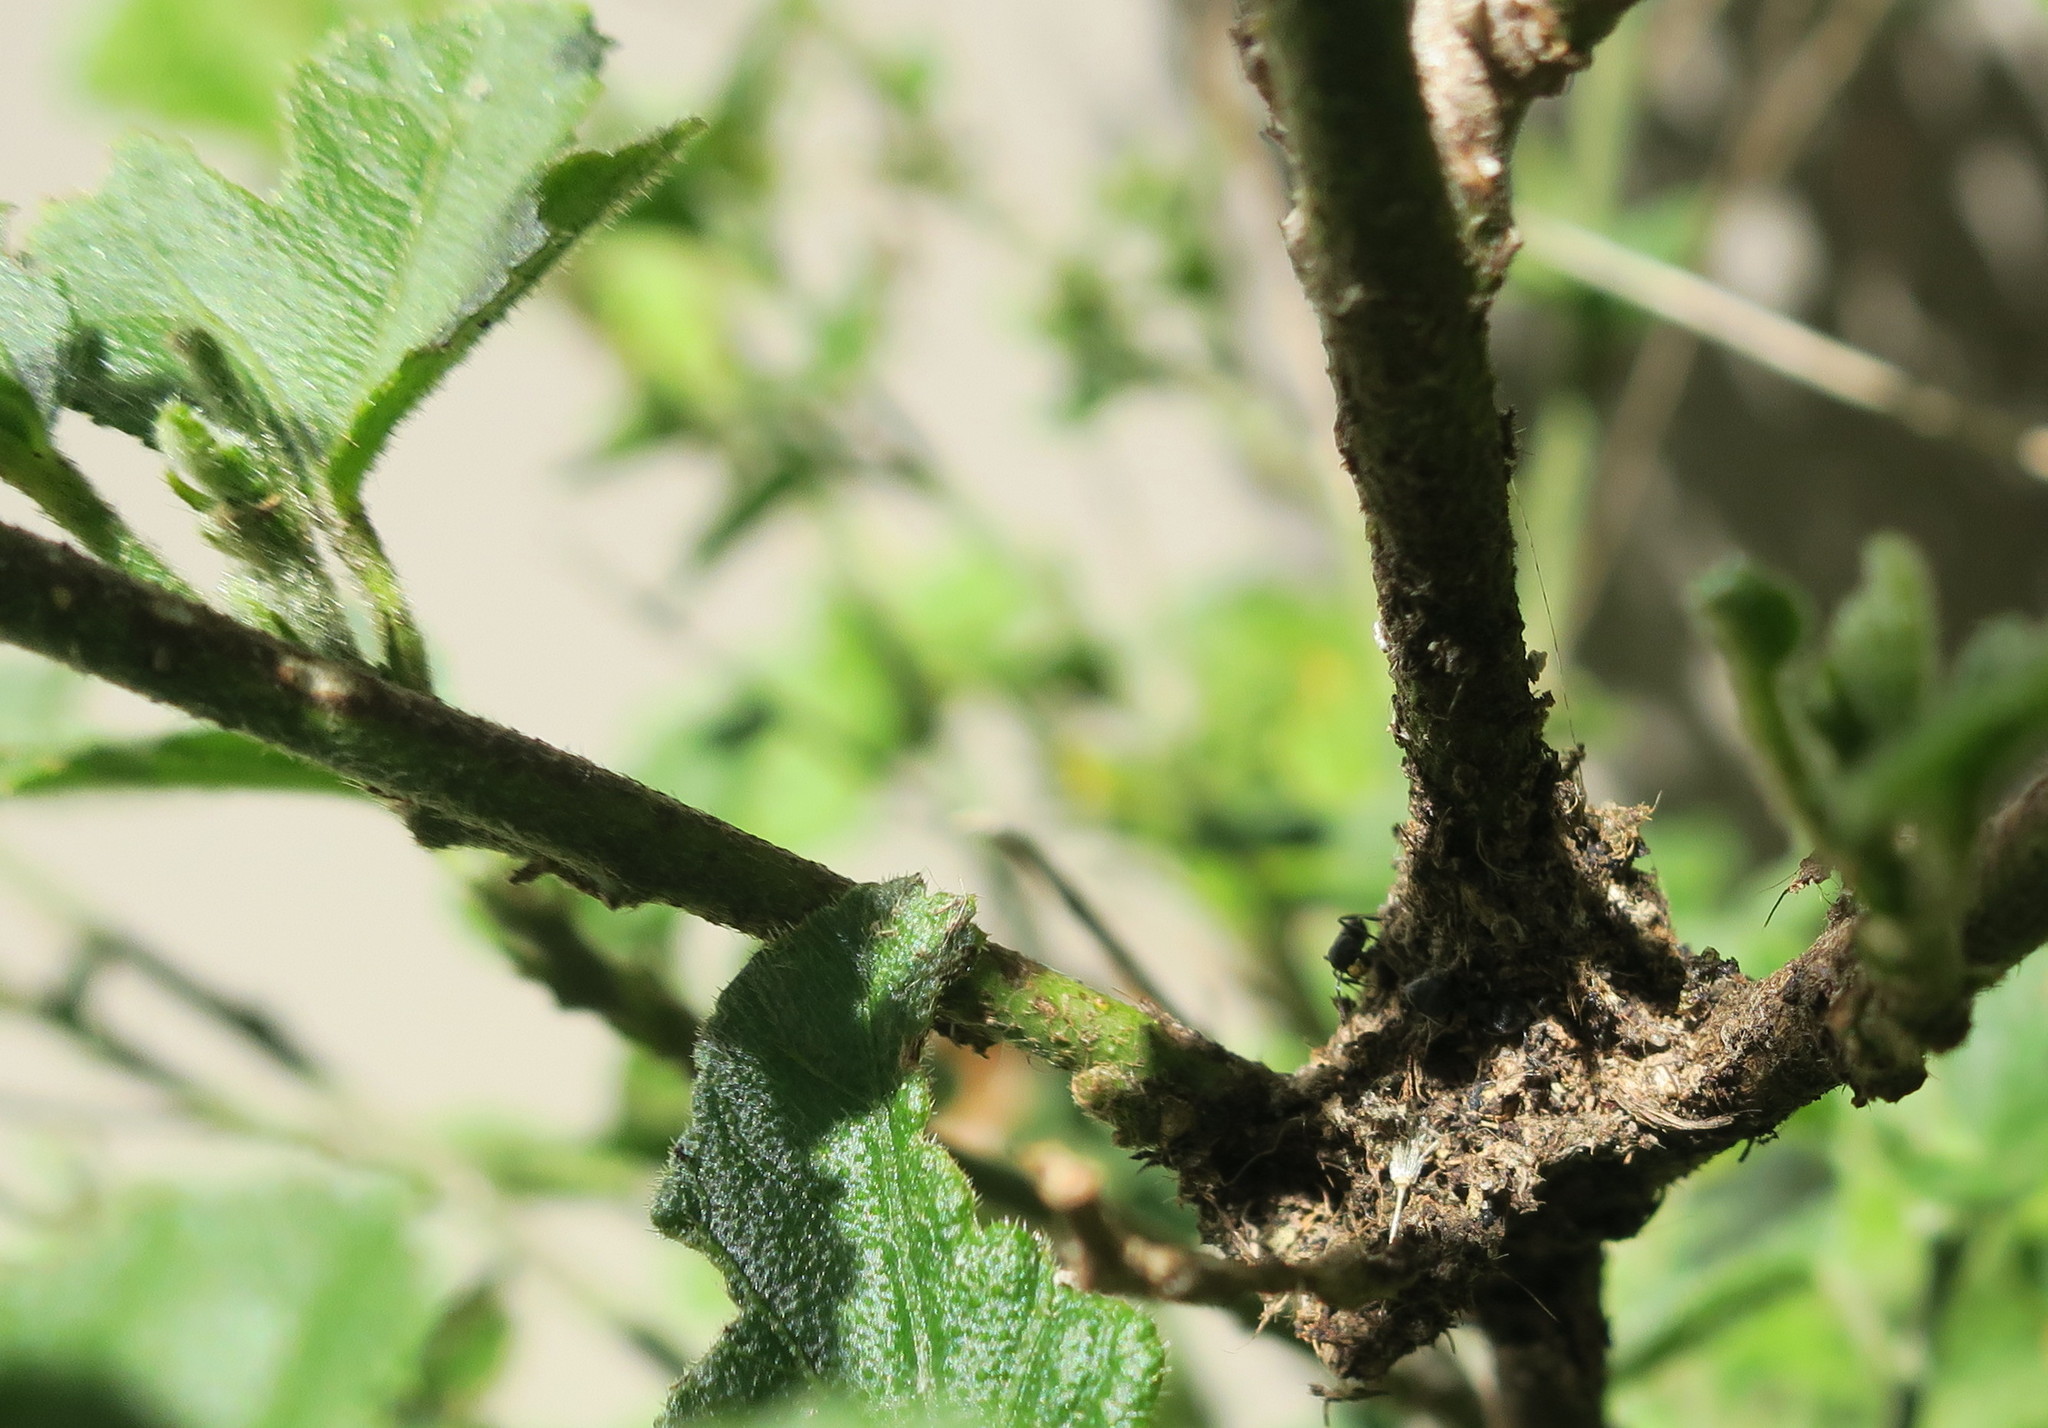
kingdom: Animalia
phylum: Arthropoda
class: Insecta
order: Hymenoptera
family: Formicidae
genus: Crematogaster
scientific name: Crematogaster peringueyi
